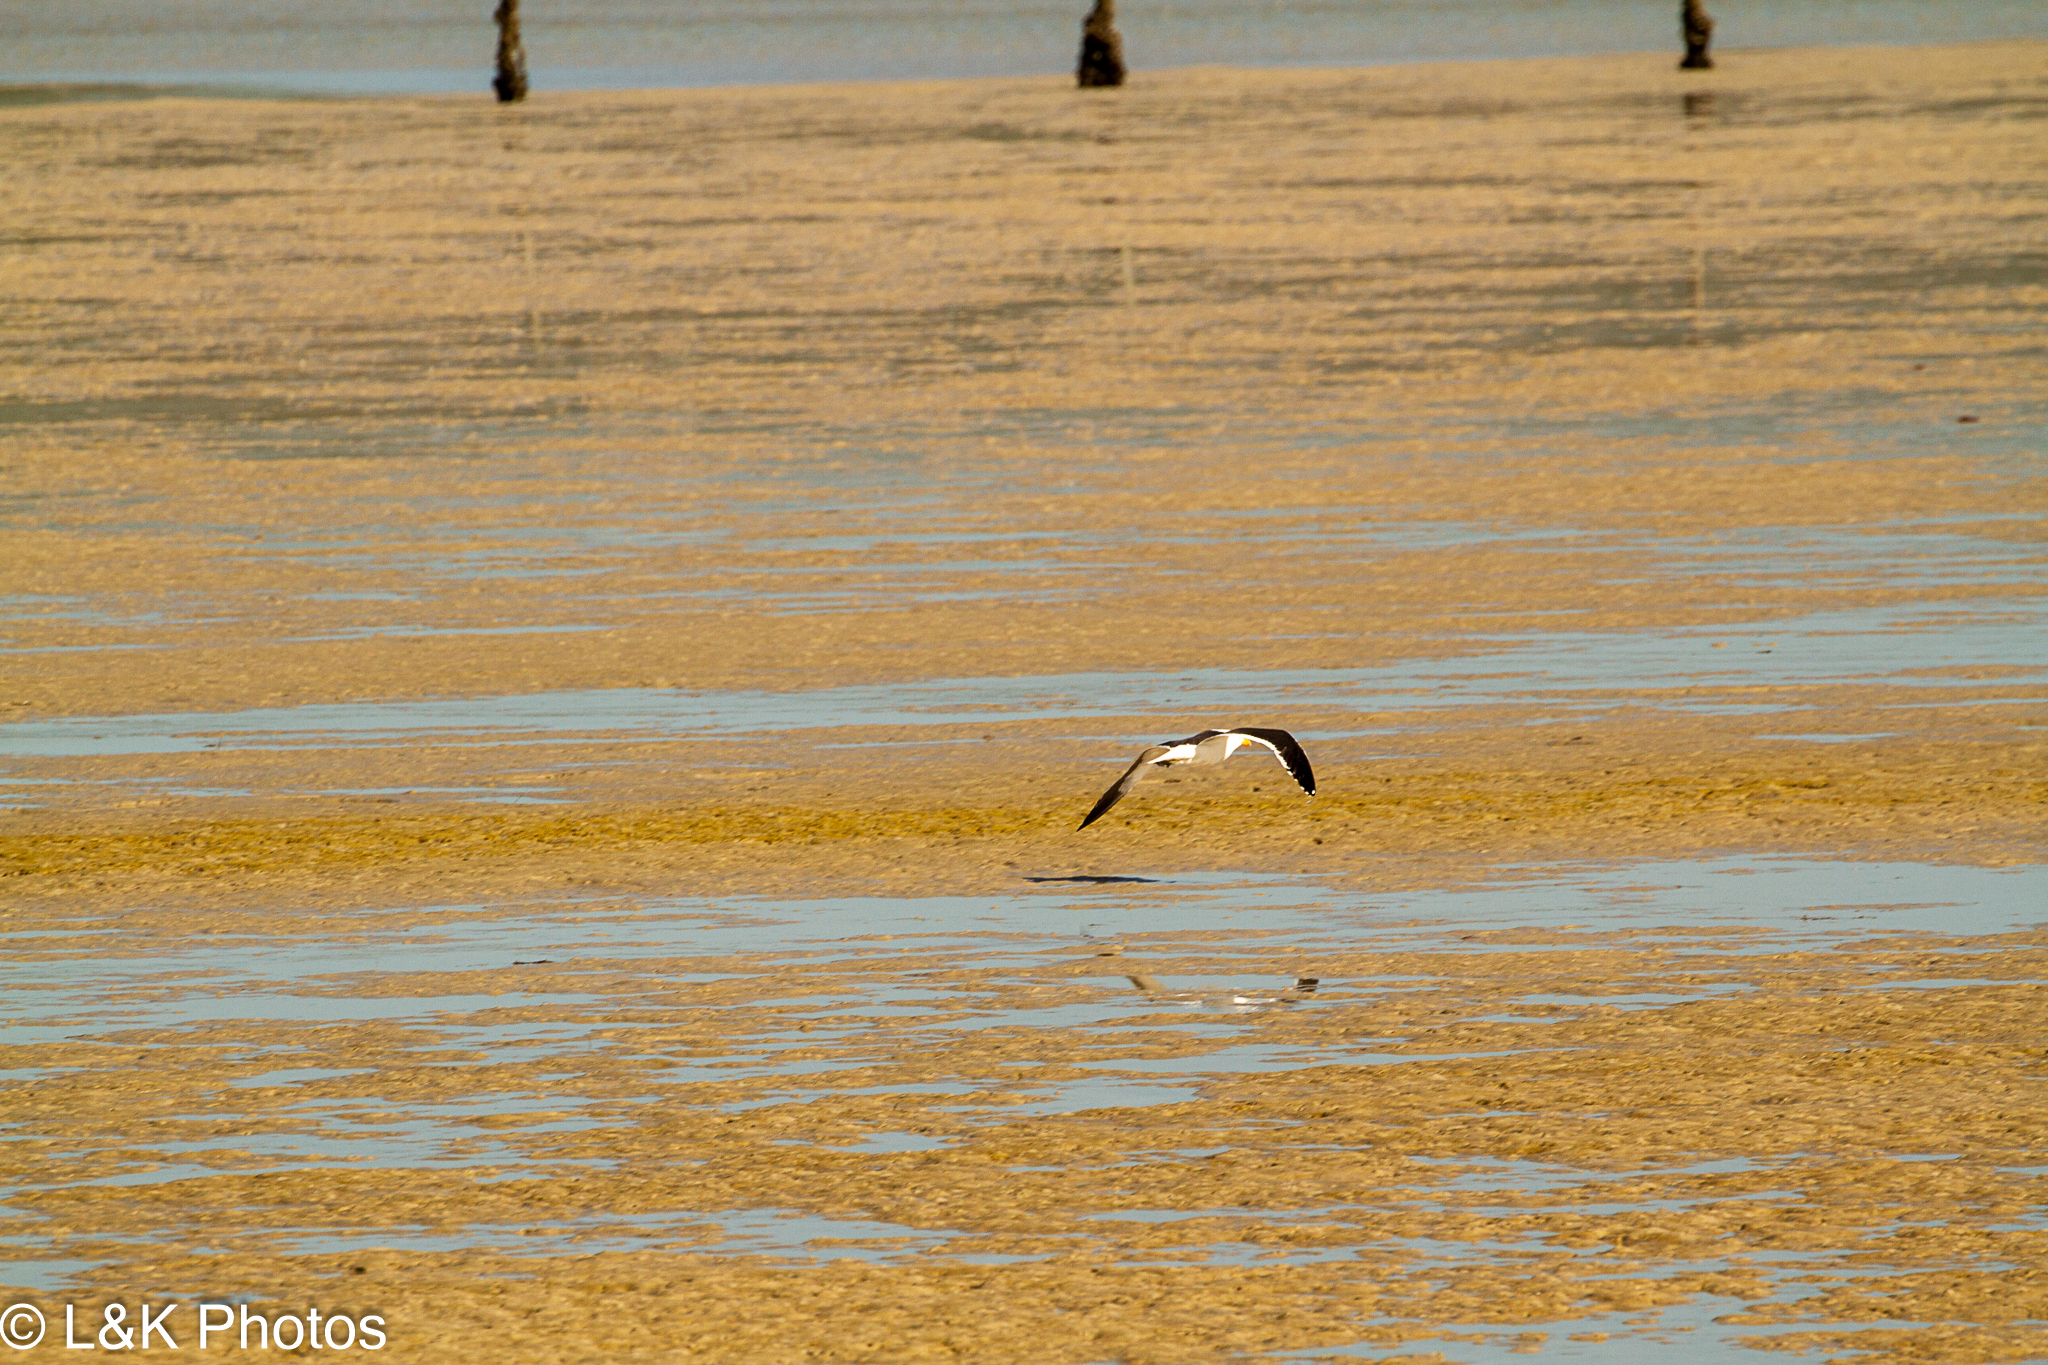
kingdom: Animalia
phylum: Chordata
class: Aves
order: Charadriiformes
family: Laridae
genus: Larus
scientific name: Larus dominicanus
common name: Kelp gull
